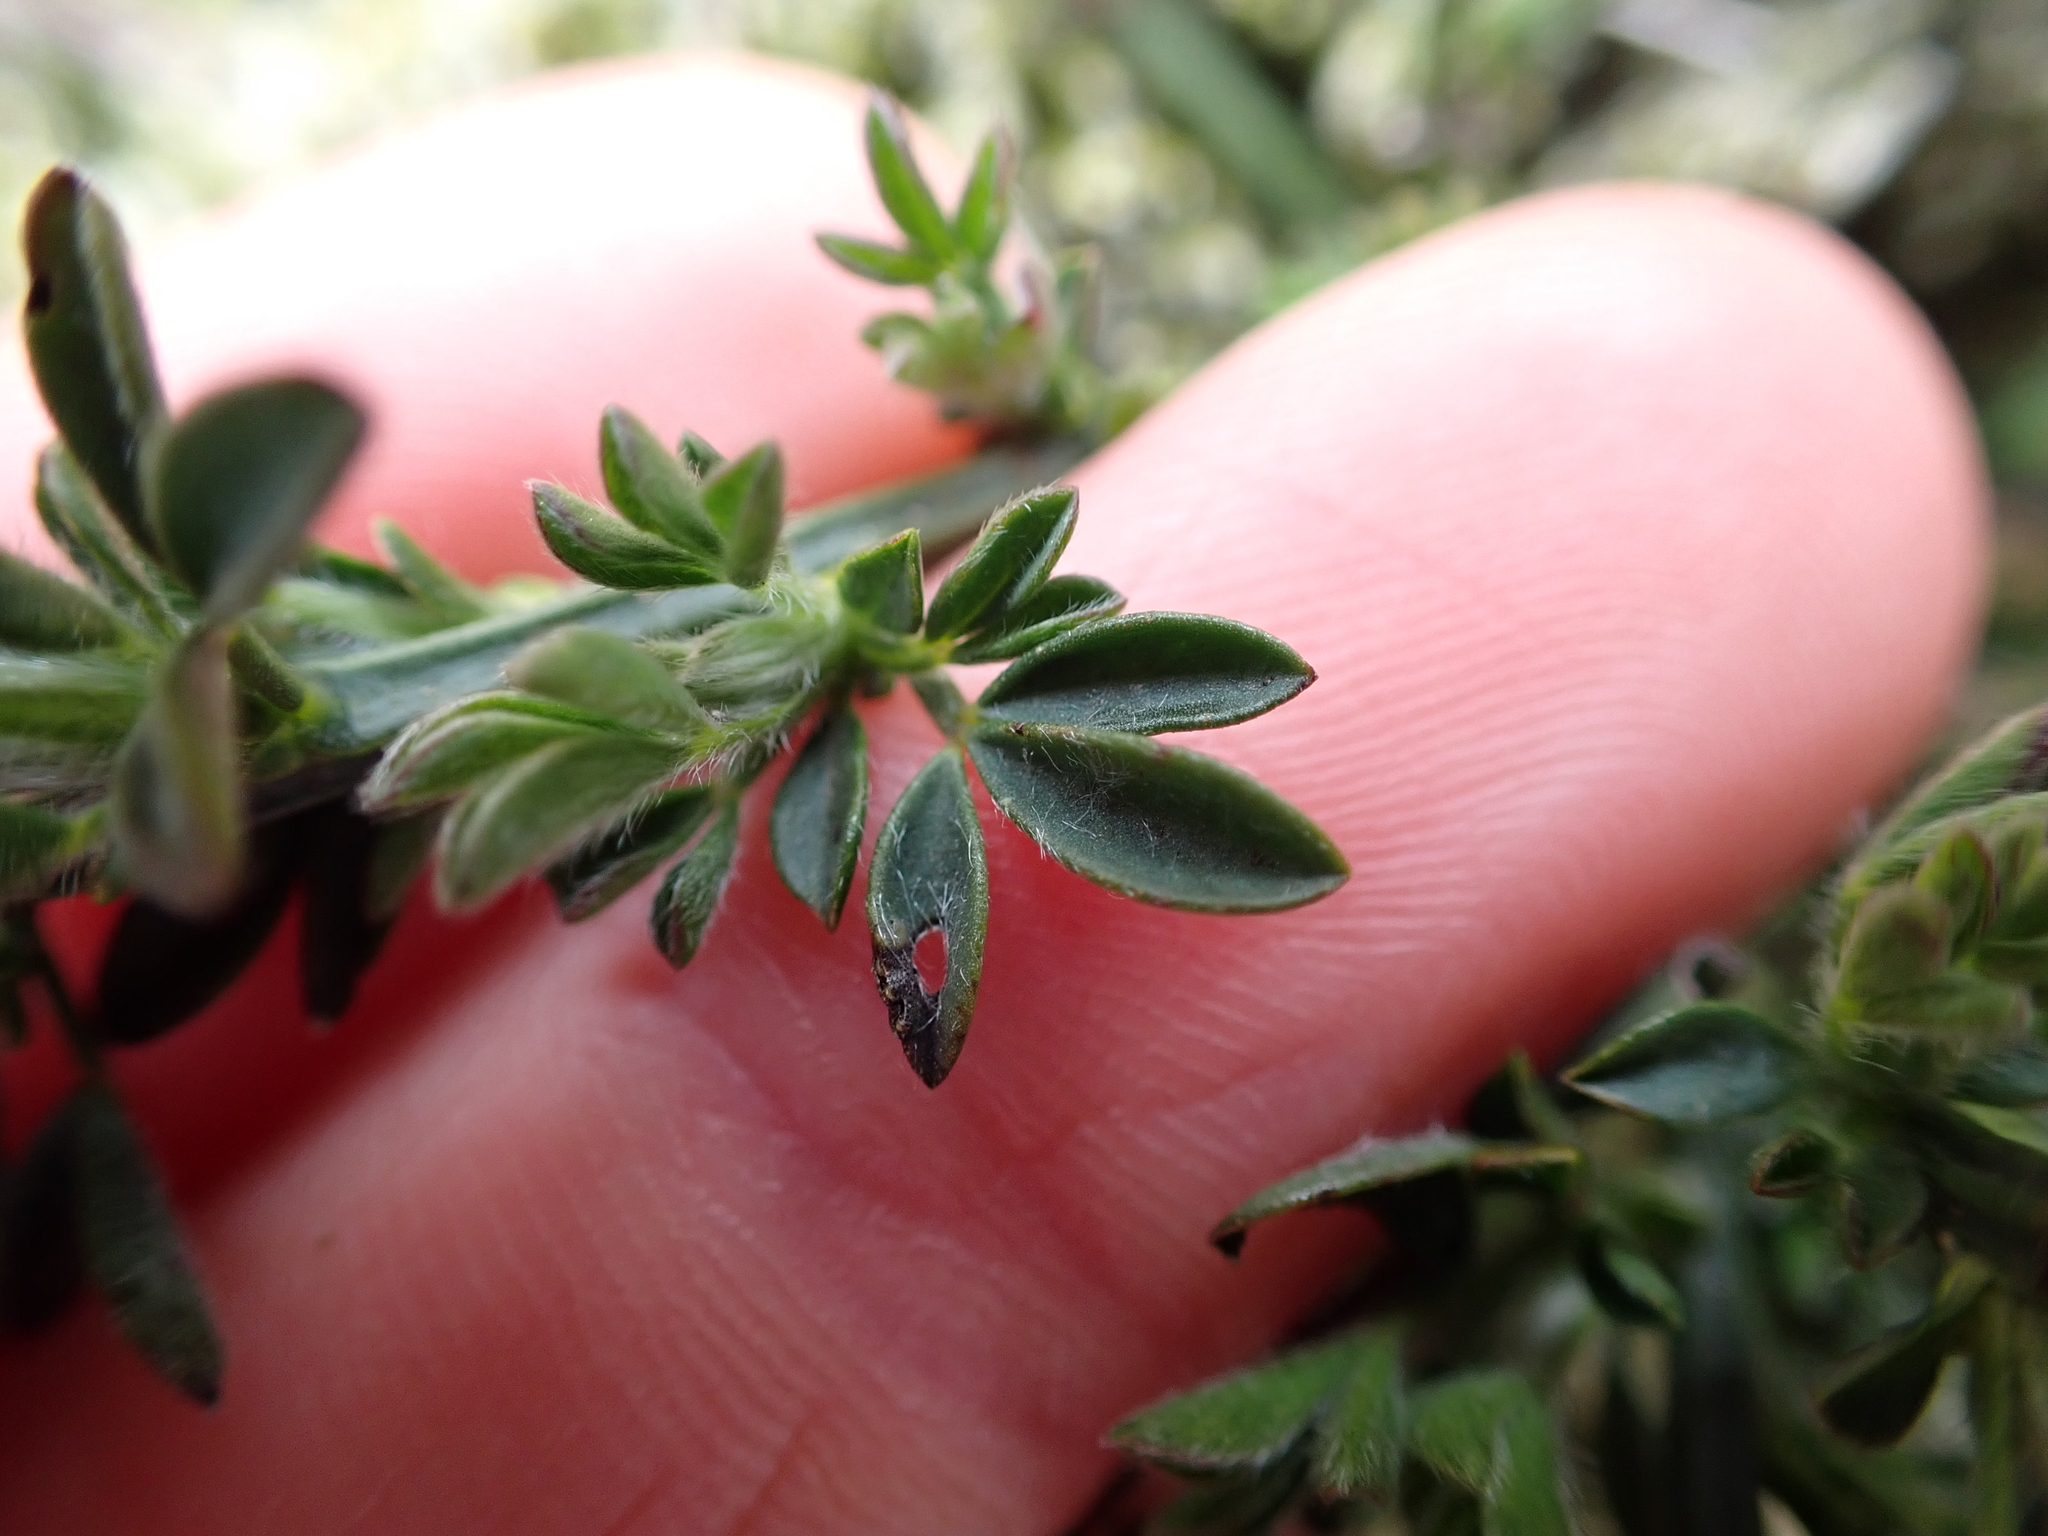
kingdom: Plantae
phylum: Tracheophyta
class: Magnoliopsida
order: Fabales
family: Fabaceae
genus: Cytisus
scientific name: Cytisus scoparius
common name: Scotch broom
